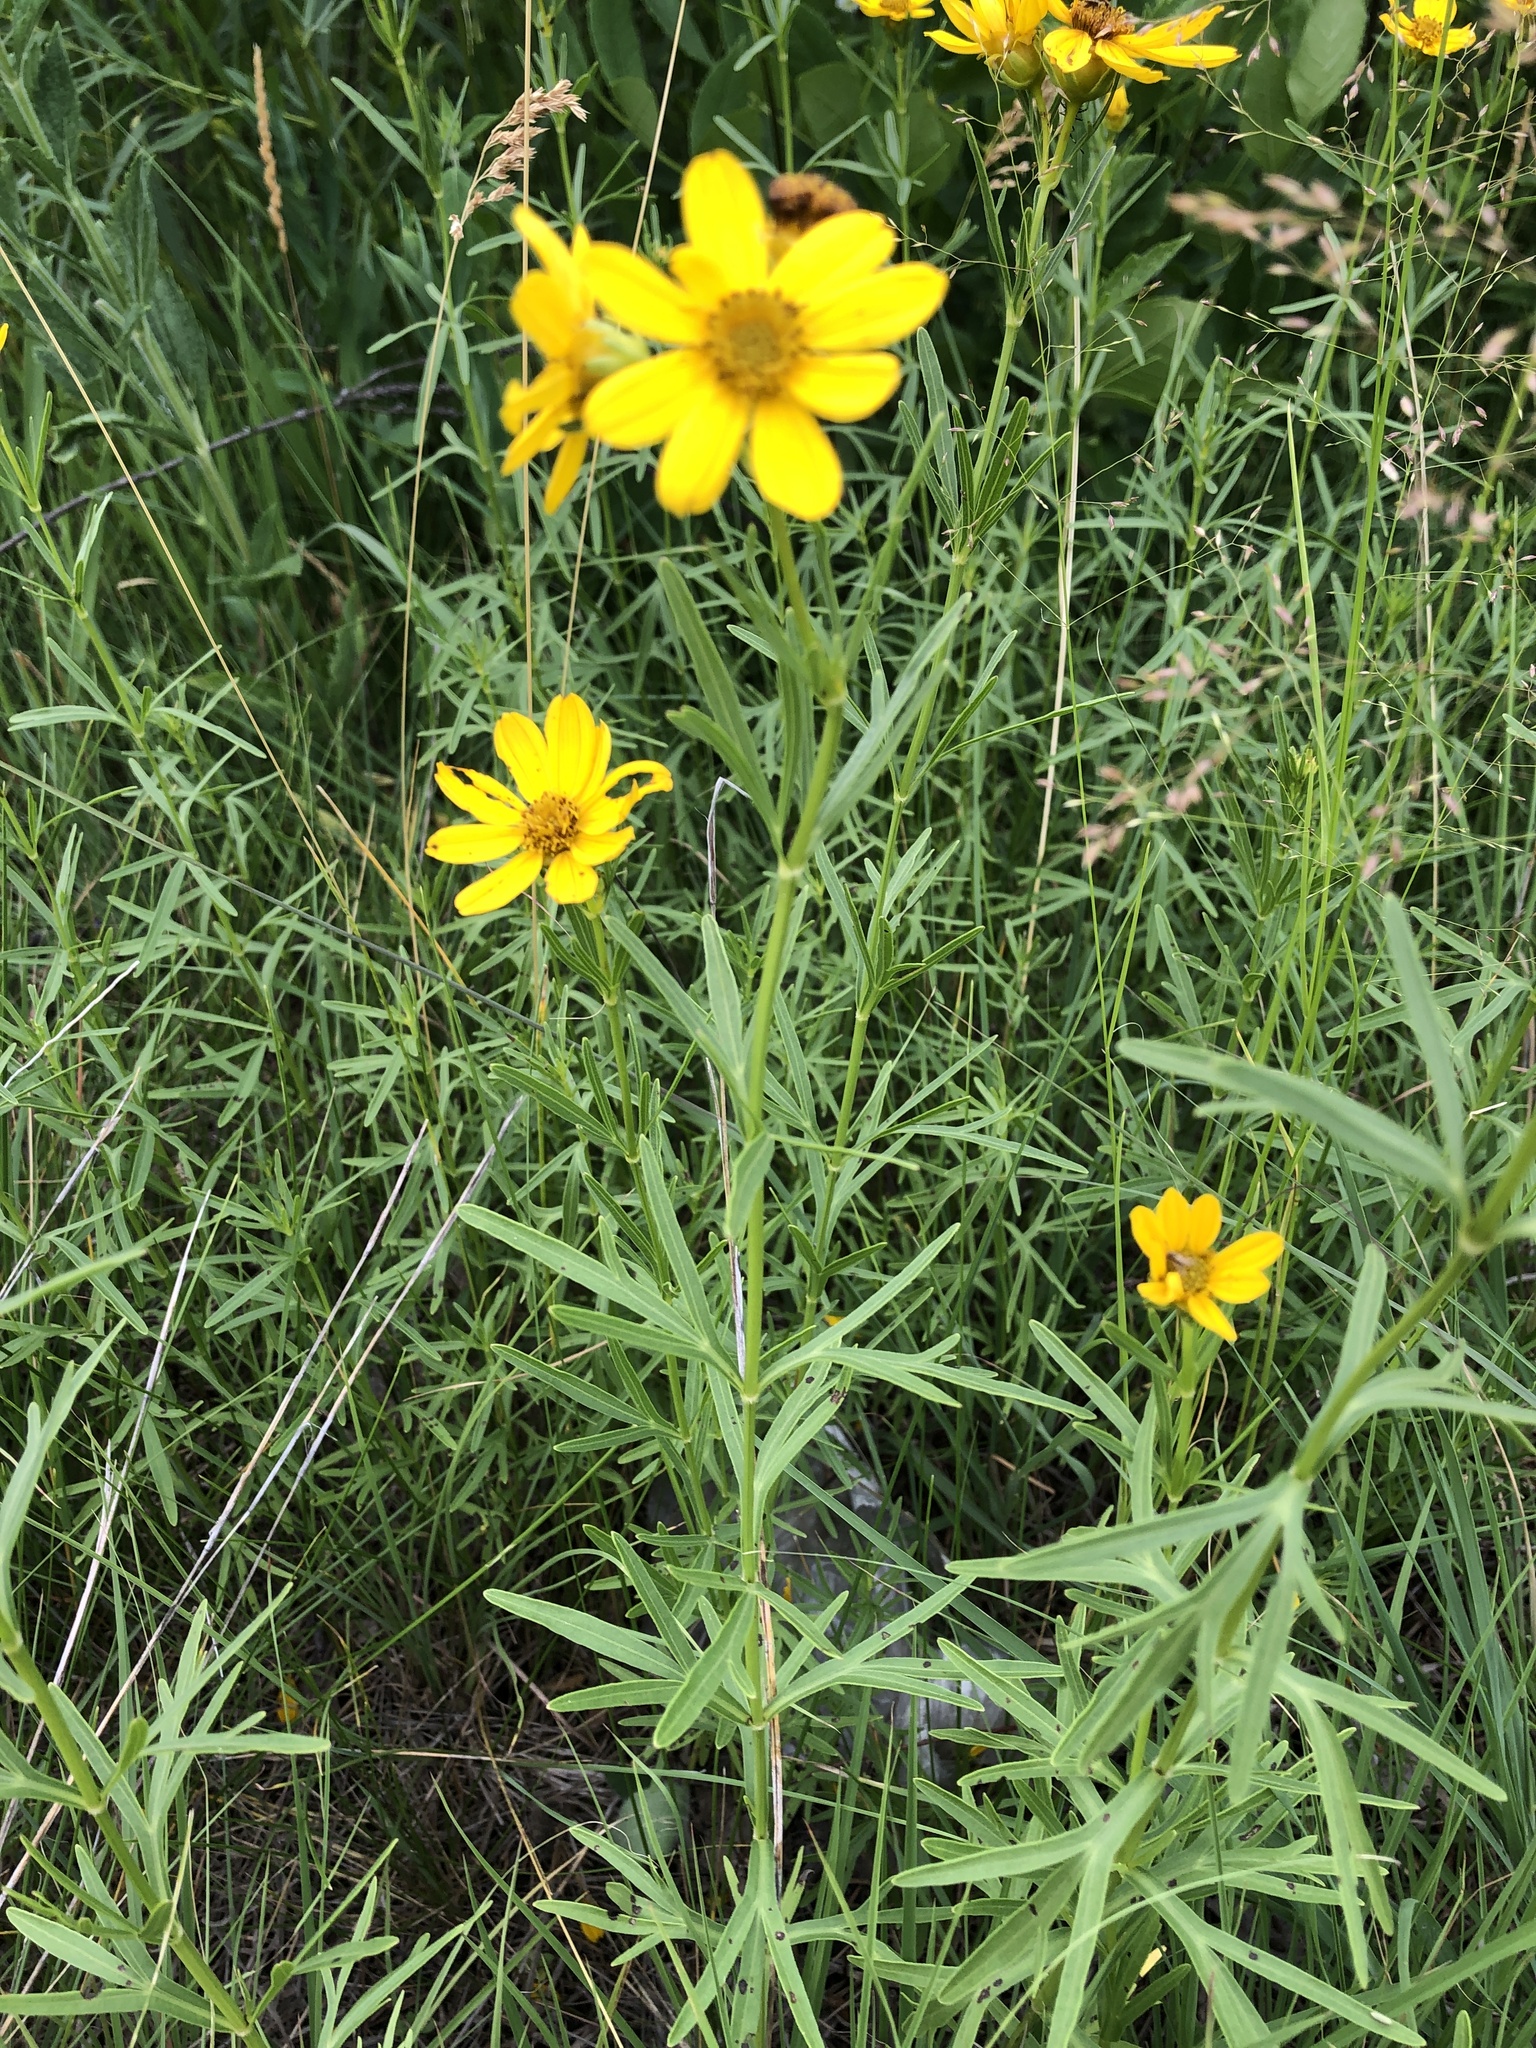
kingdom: Plantae
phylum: Tracheophyta
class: Magnoliopsida
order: Asterales
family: Asteraceae
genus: Coreopsis
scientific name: Coreopsis palmata
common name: Prairie coreopsis
